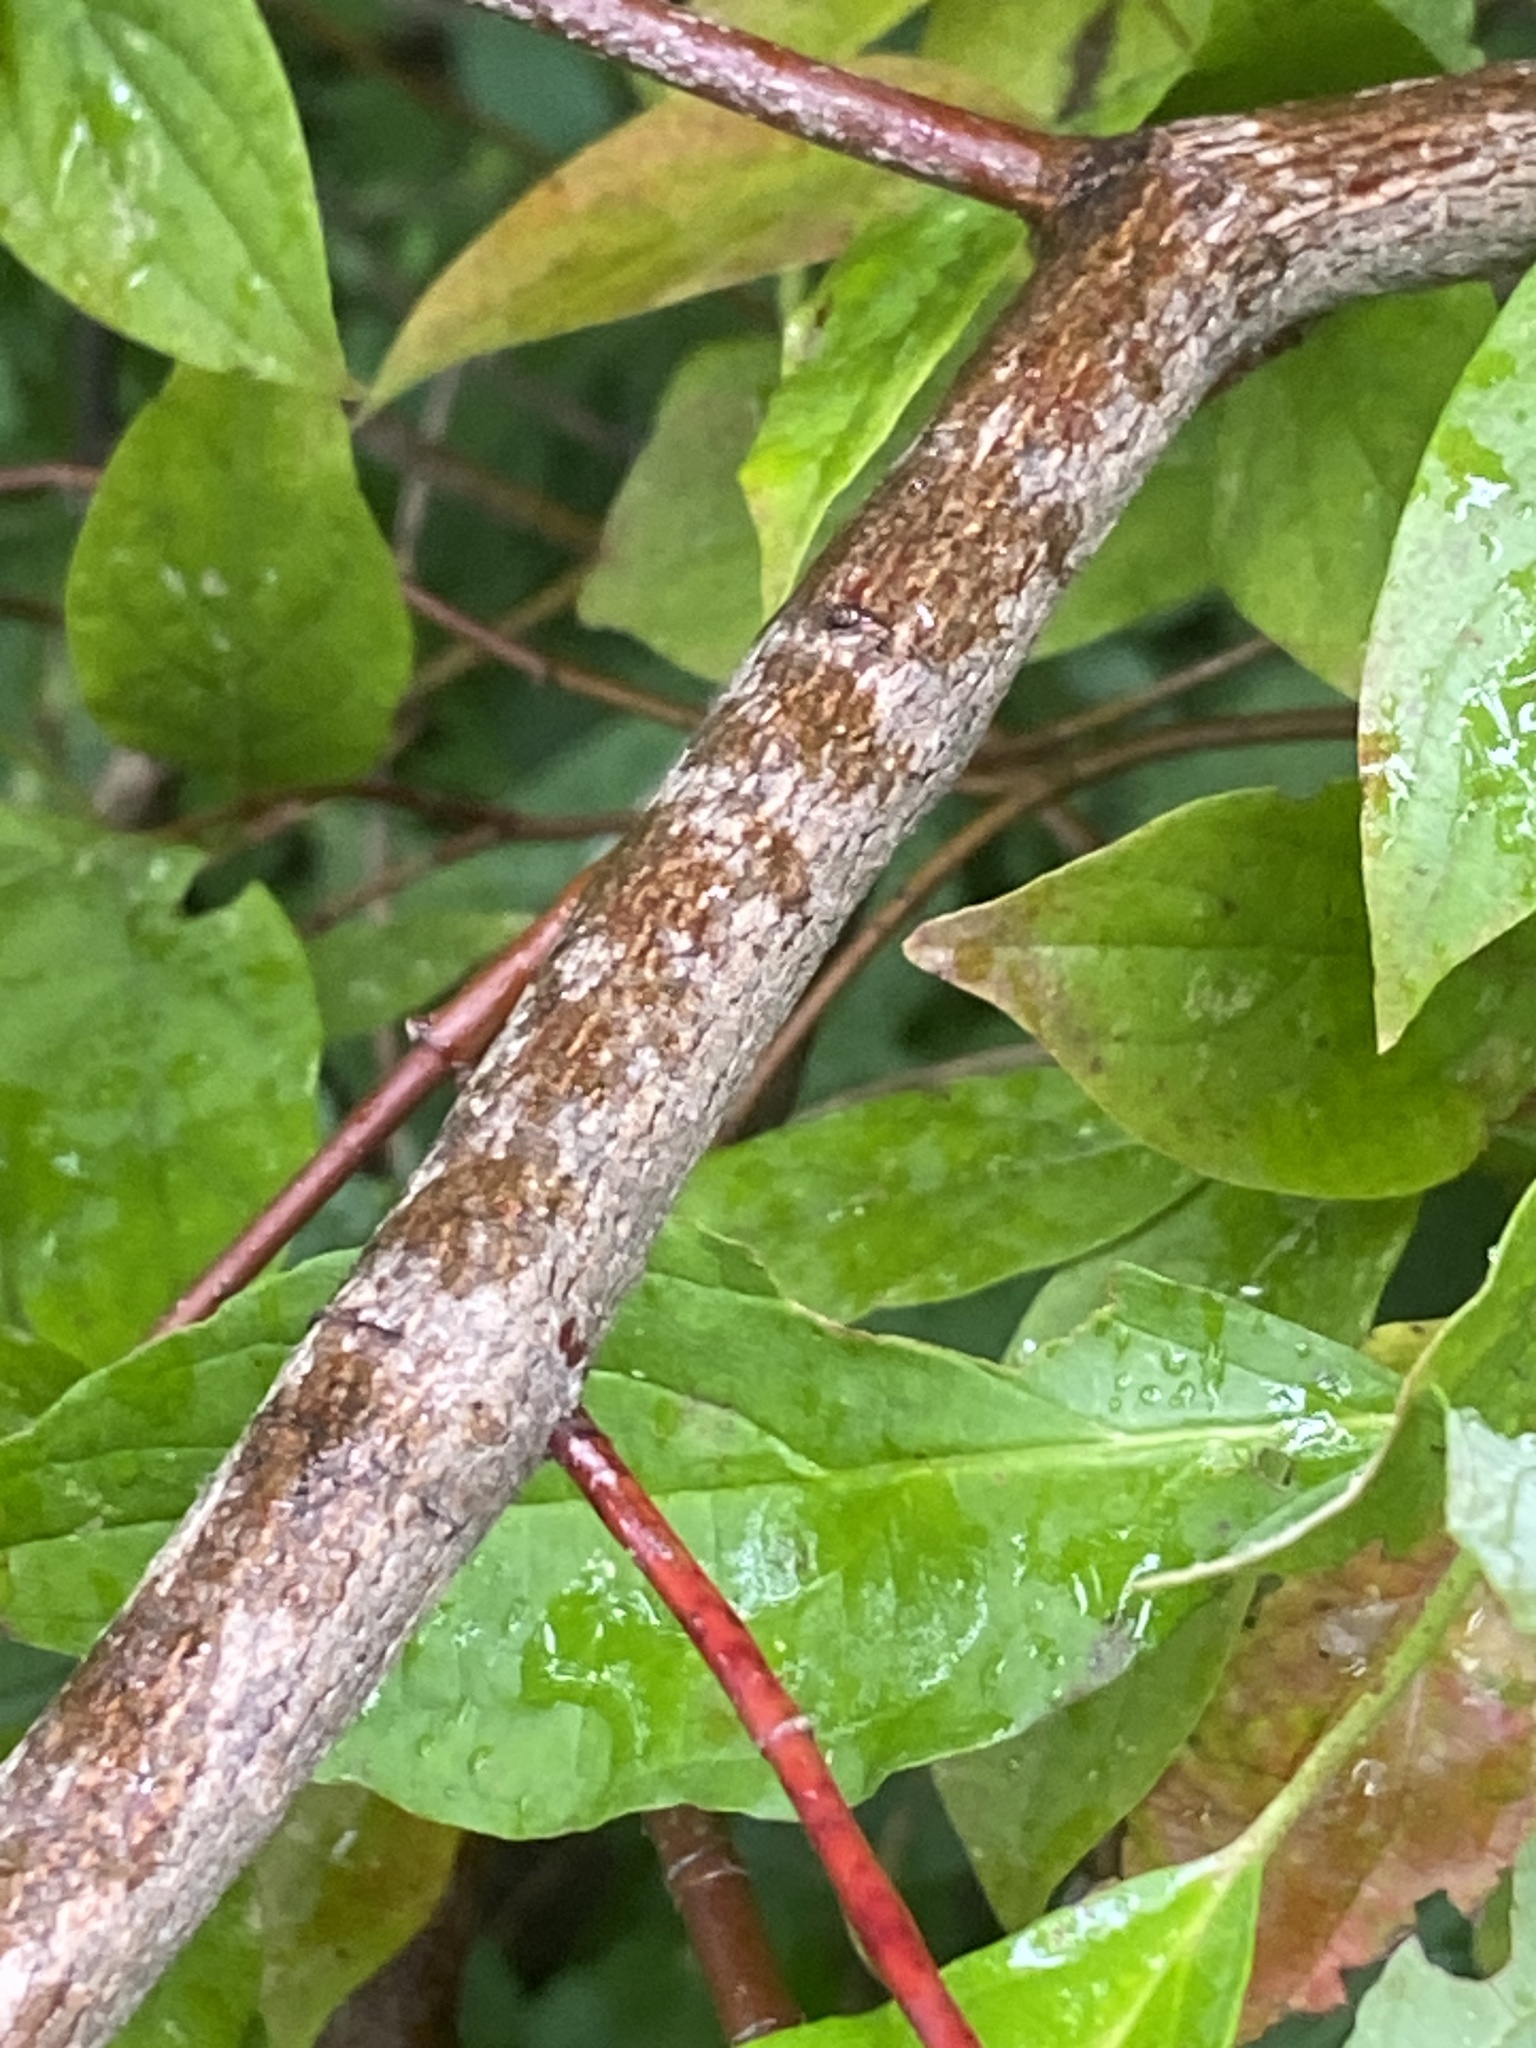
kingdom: Plantae
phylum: Tracheophyta
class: Magnoliopsida
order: Cornales
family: Cornaceae
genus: Cornus
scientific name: Cornus amomum
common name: Silky dogwood
